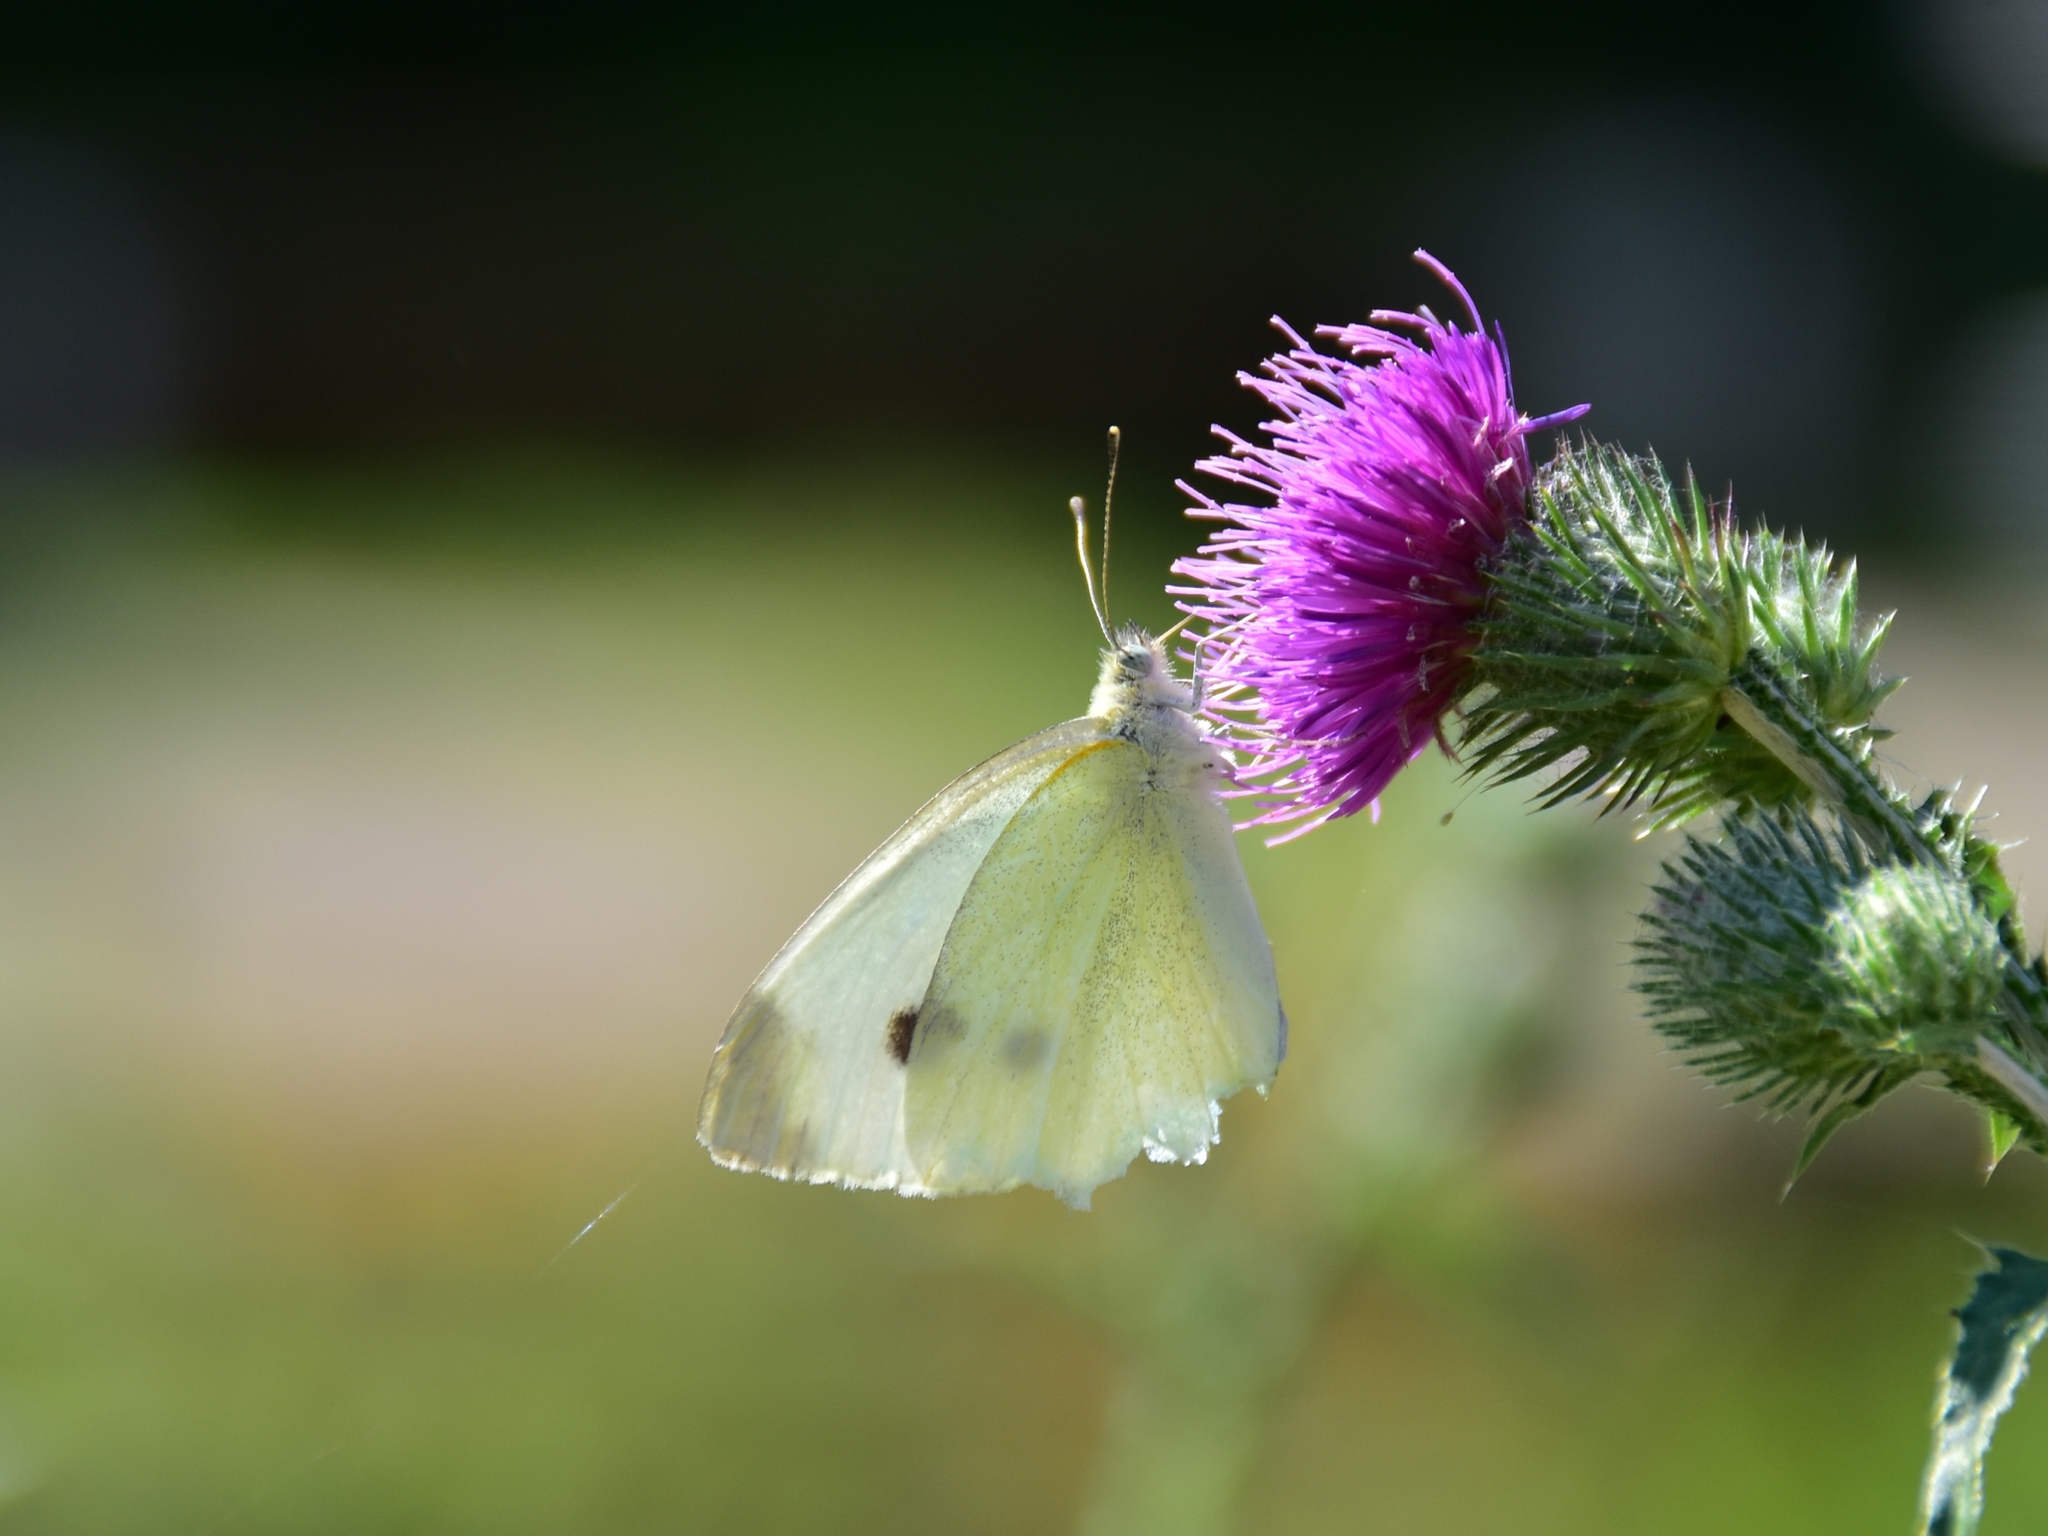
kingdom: Animalia
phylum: Arthropoda
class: Insecta
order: Lepidoptera
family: Pieridae
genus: Pieris
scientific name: Pieris rapae
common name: Small white
